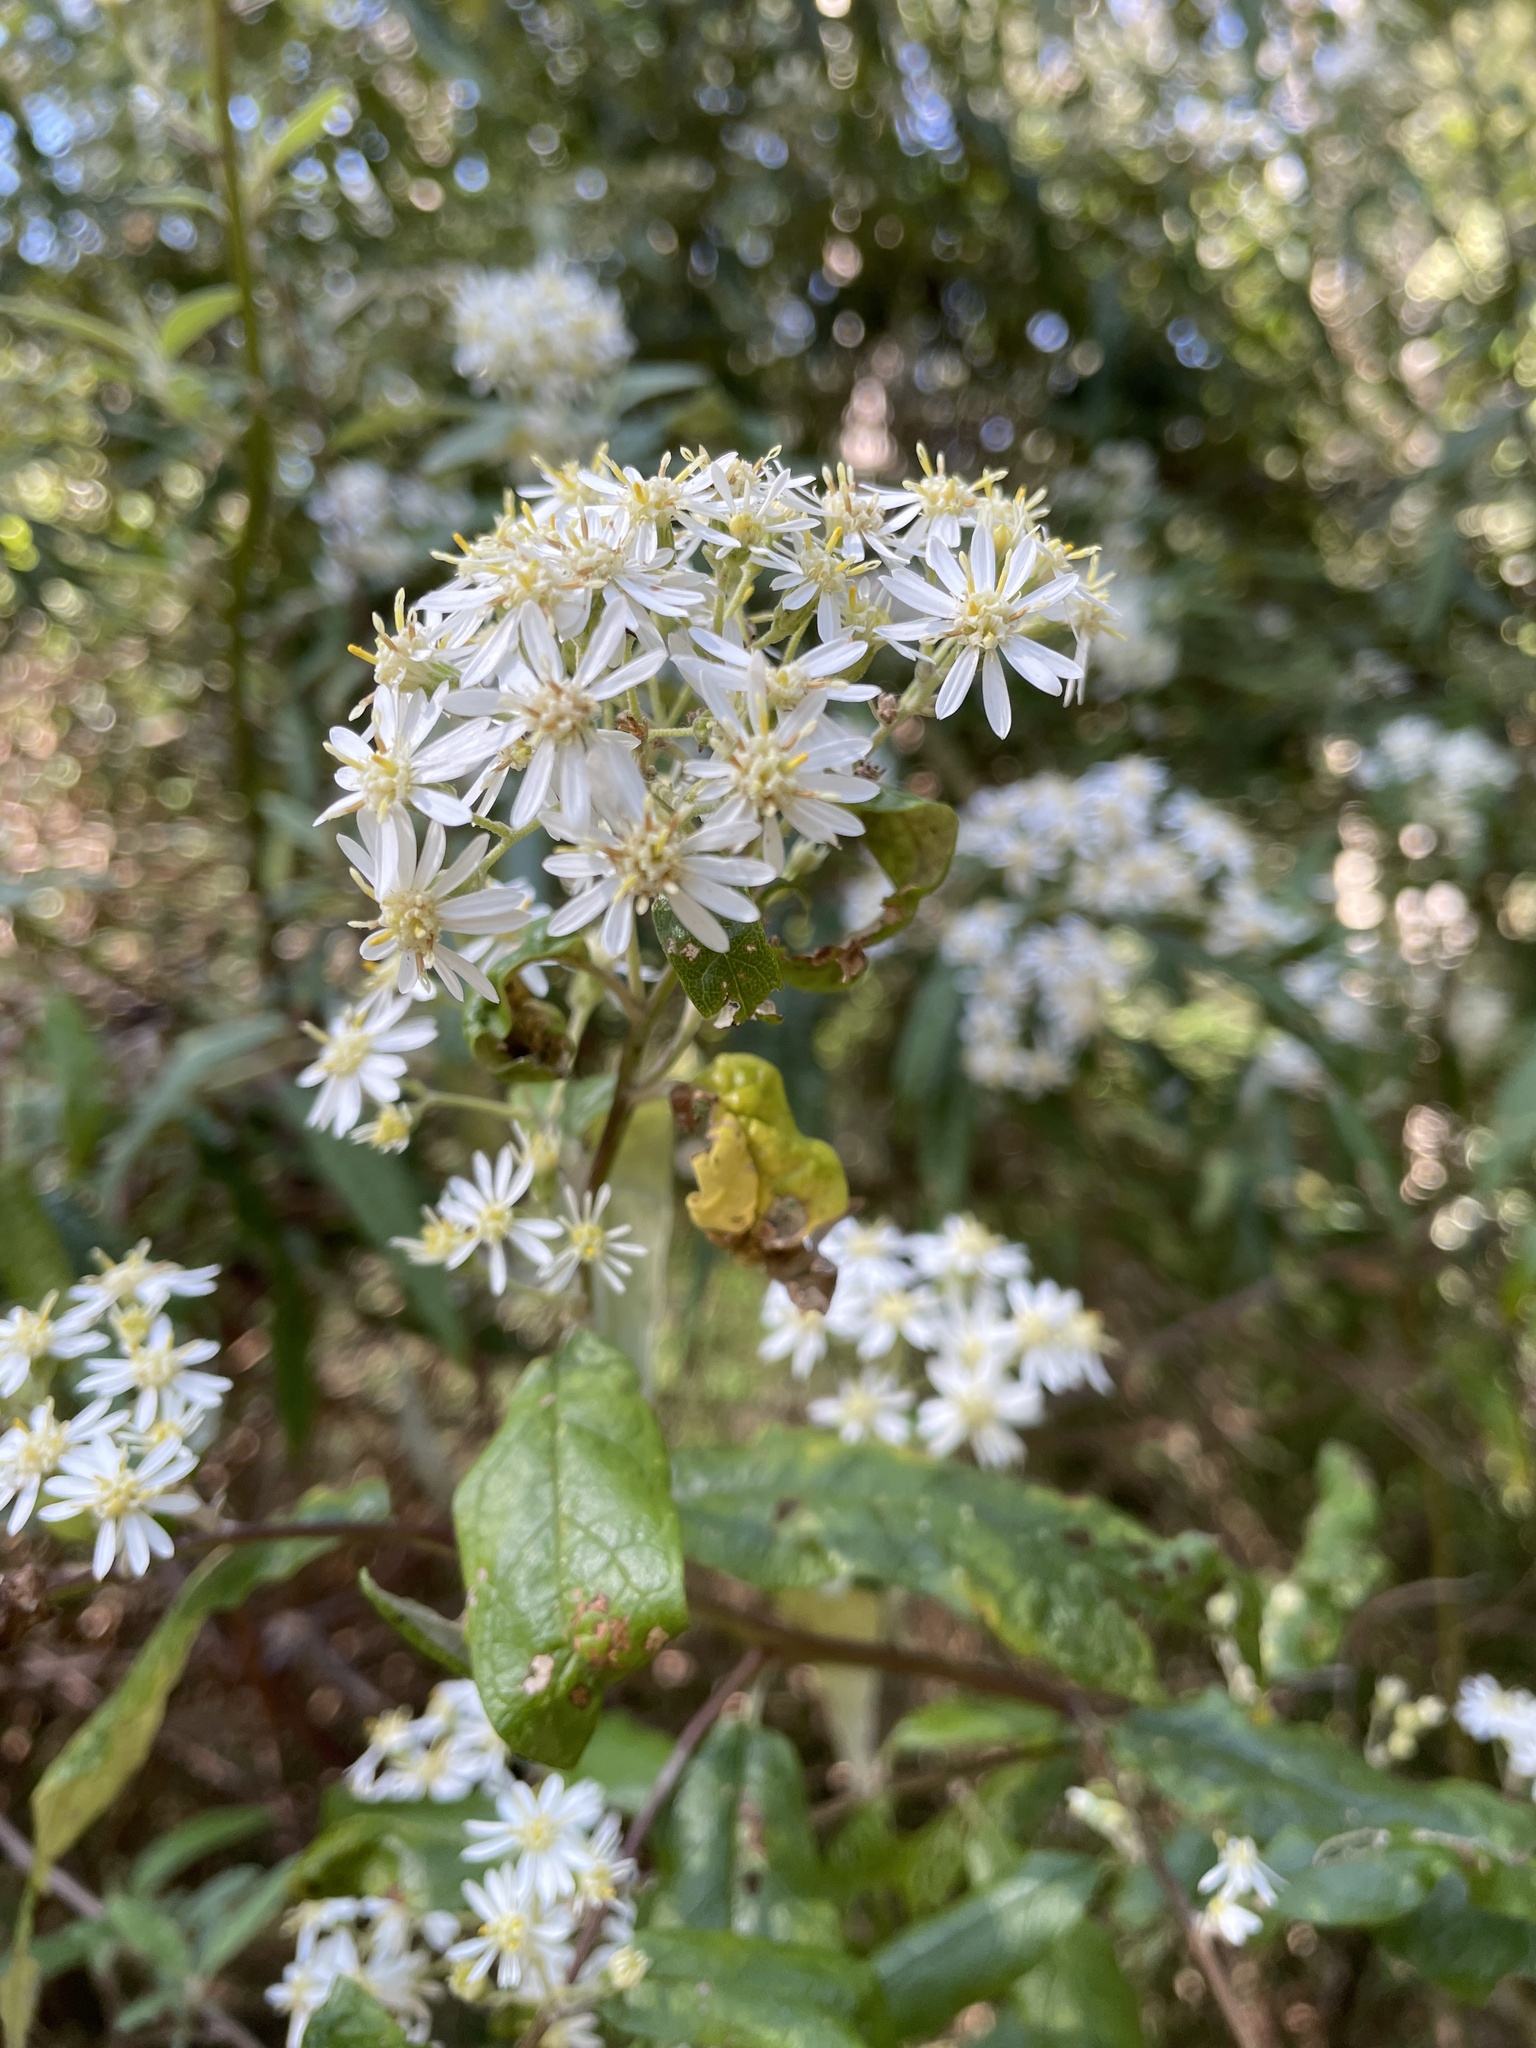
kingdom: Plantae
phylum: Tracheophyta
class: Magnoliopsida
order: Asterales
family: Asteraceae
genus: Olearia
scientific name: Olearia lirata
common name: Dusty daisybush
